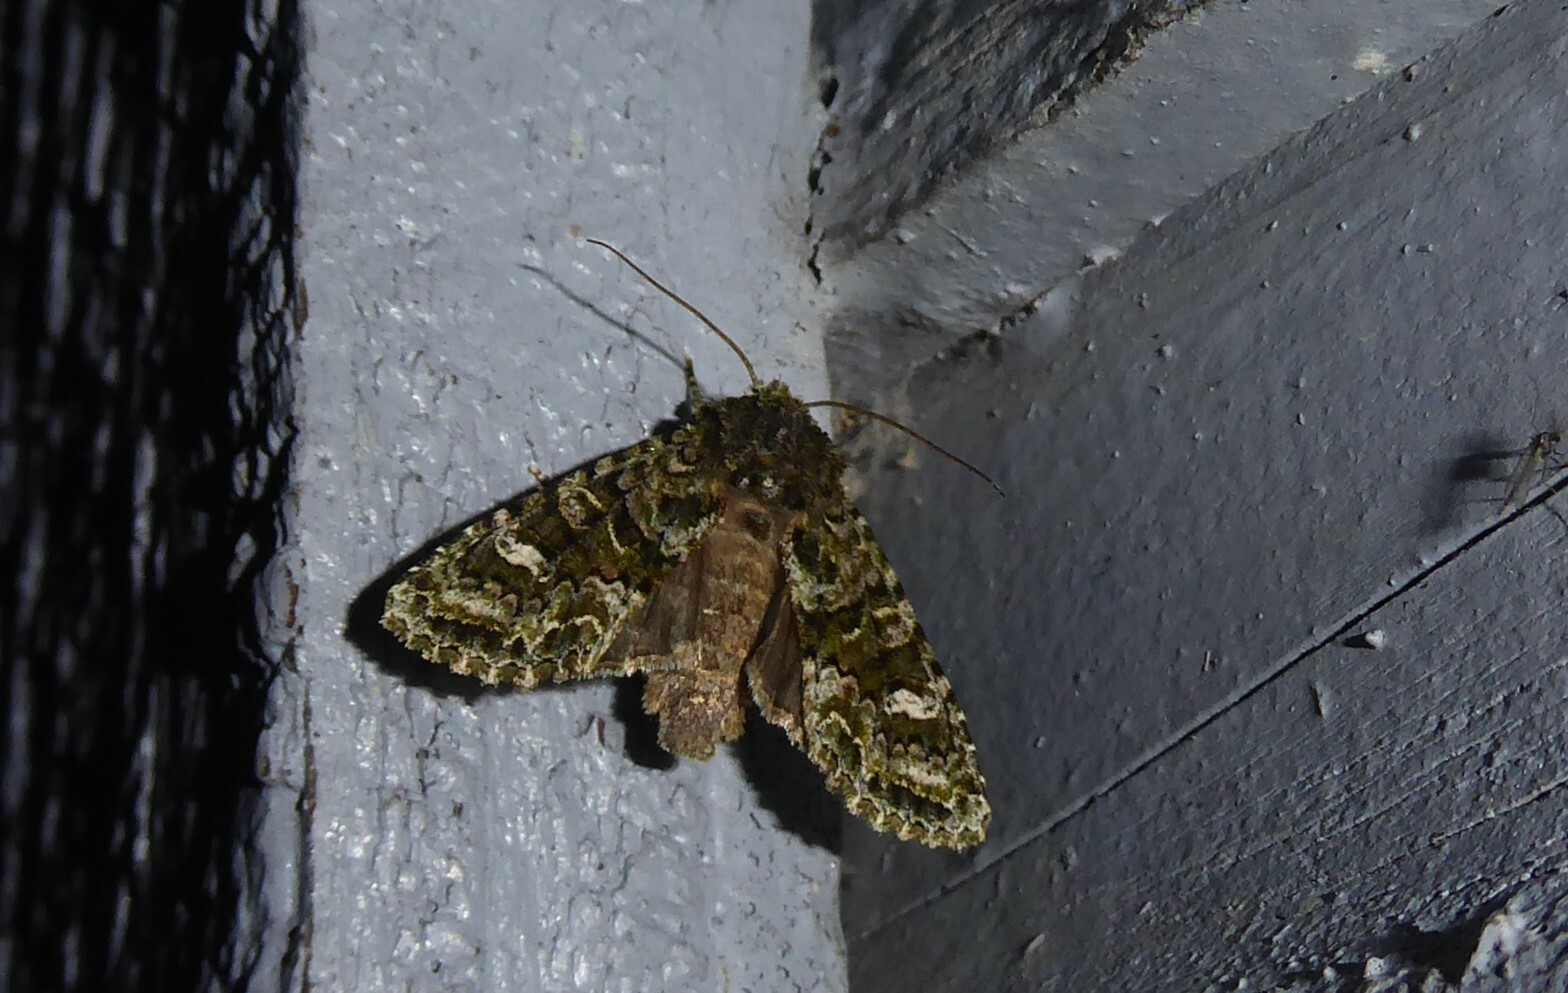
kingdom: Animalia
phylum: Arthropoda
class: Insecta
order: Lepidoptera
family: Noctuidae
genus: Ichneutica
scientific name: Ichneutica
